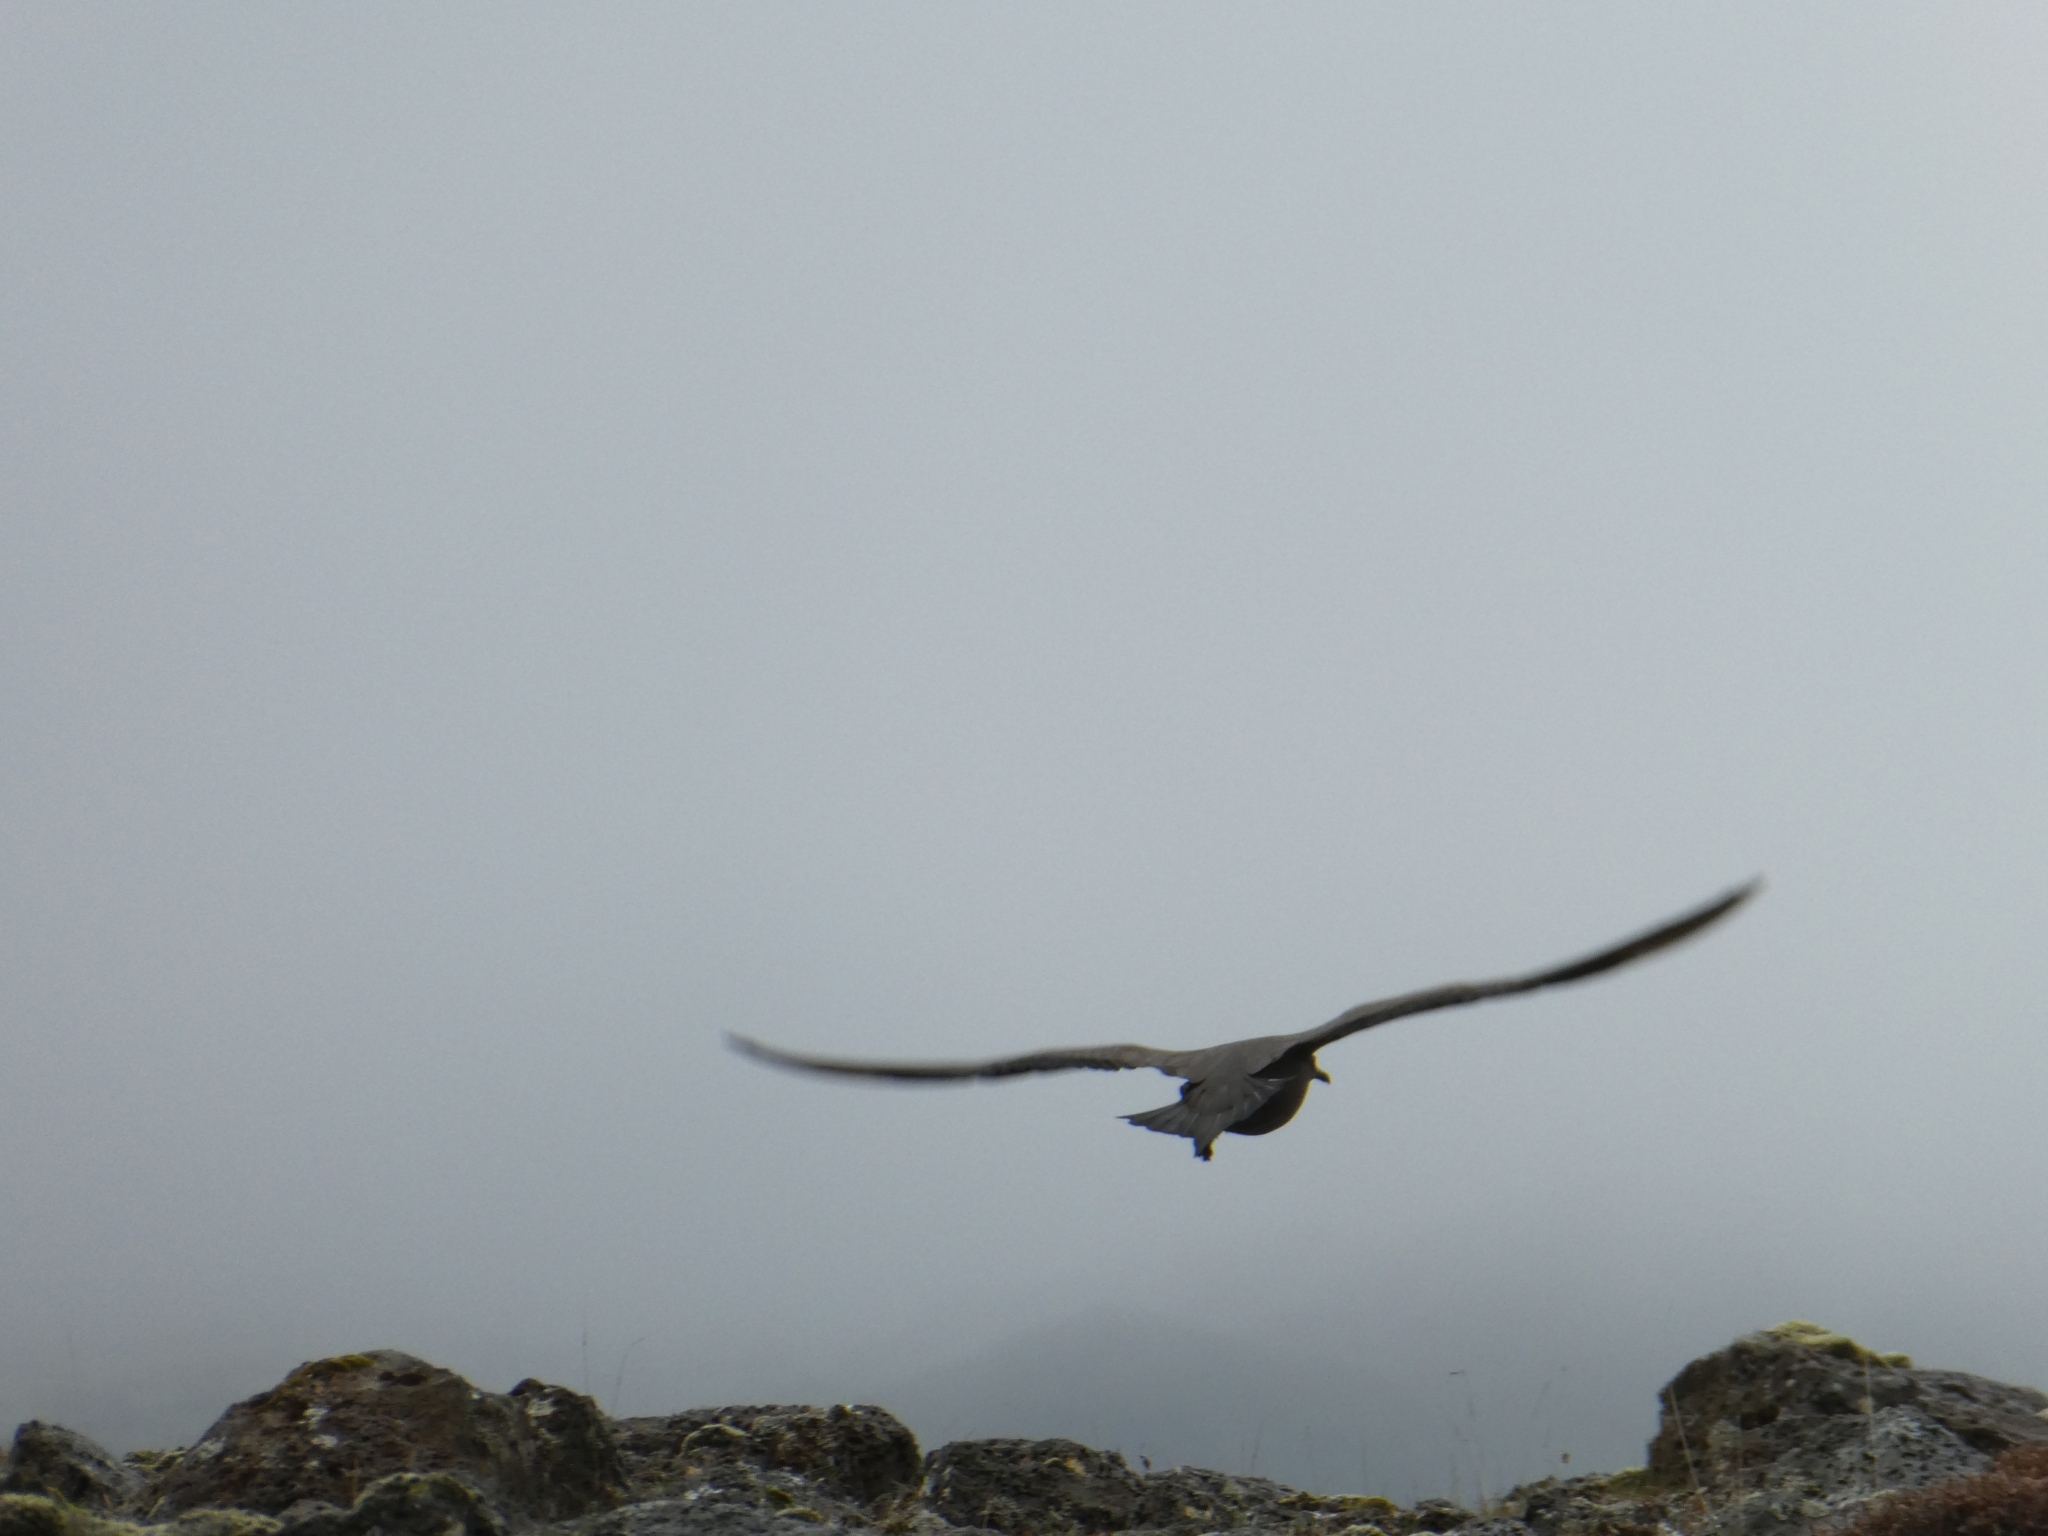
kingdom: Animalia
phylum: Chordata
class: Aves
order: Charadriiformes
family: Stercorariidae
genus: Stercorarius
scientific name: Stercorarius parasiticus
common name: Parasitic jaeger
